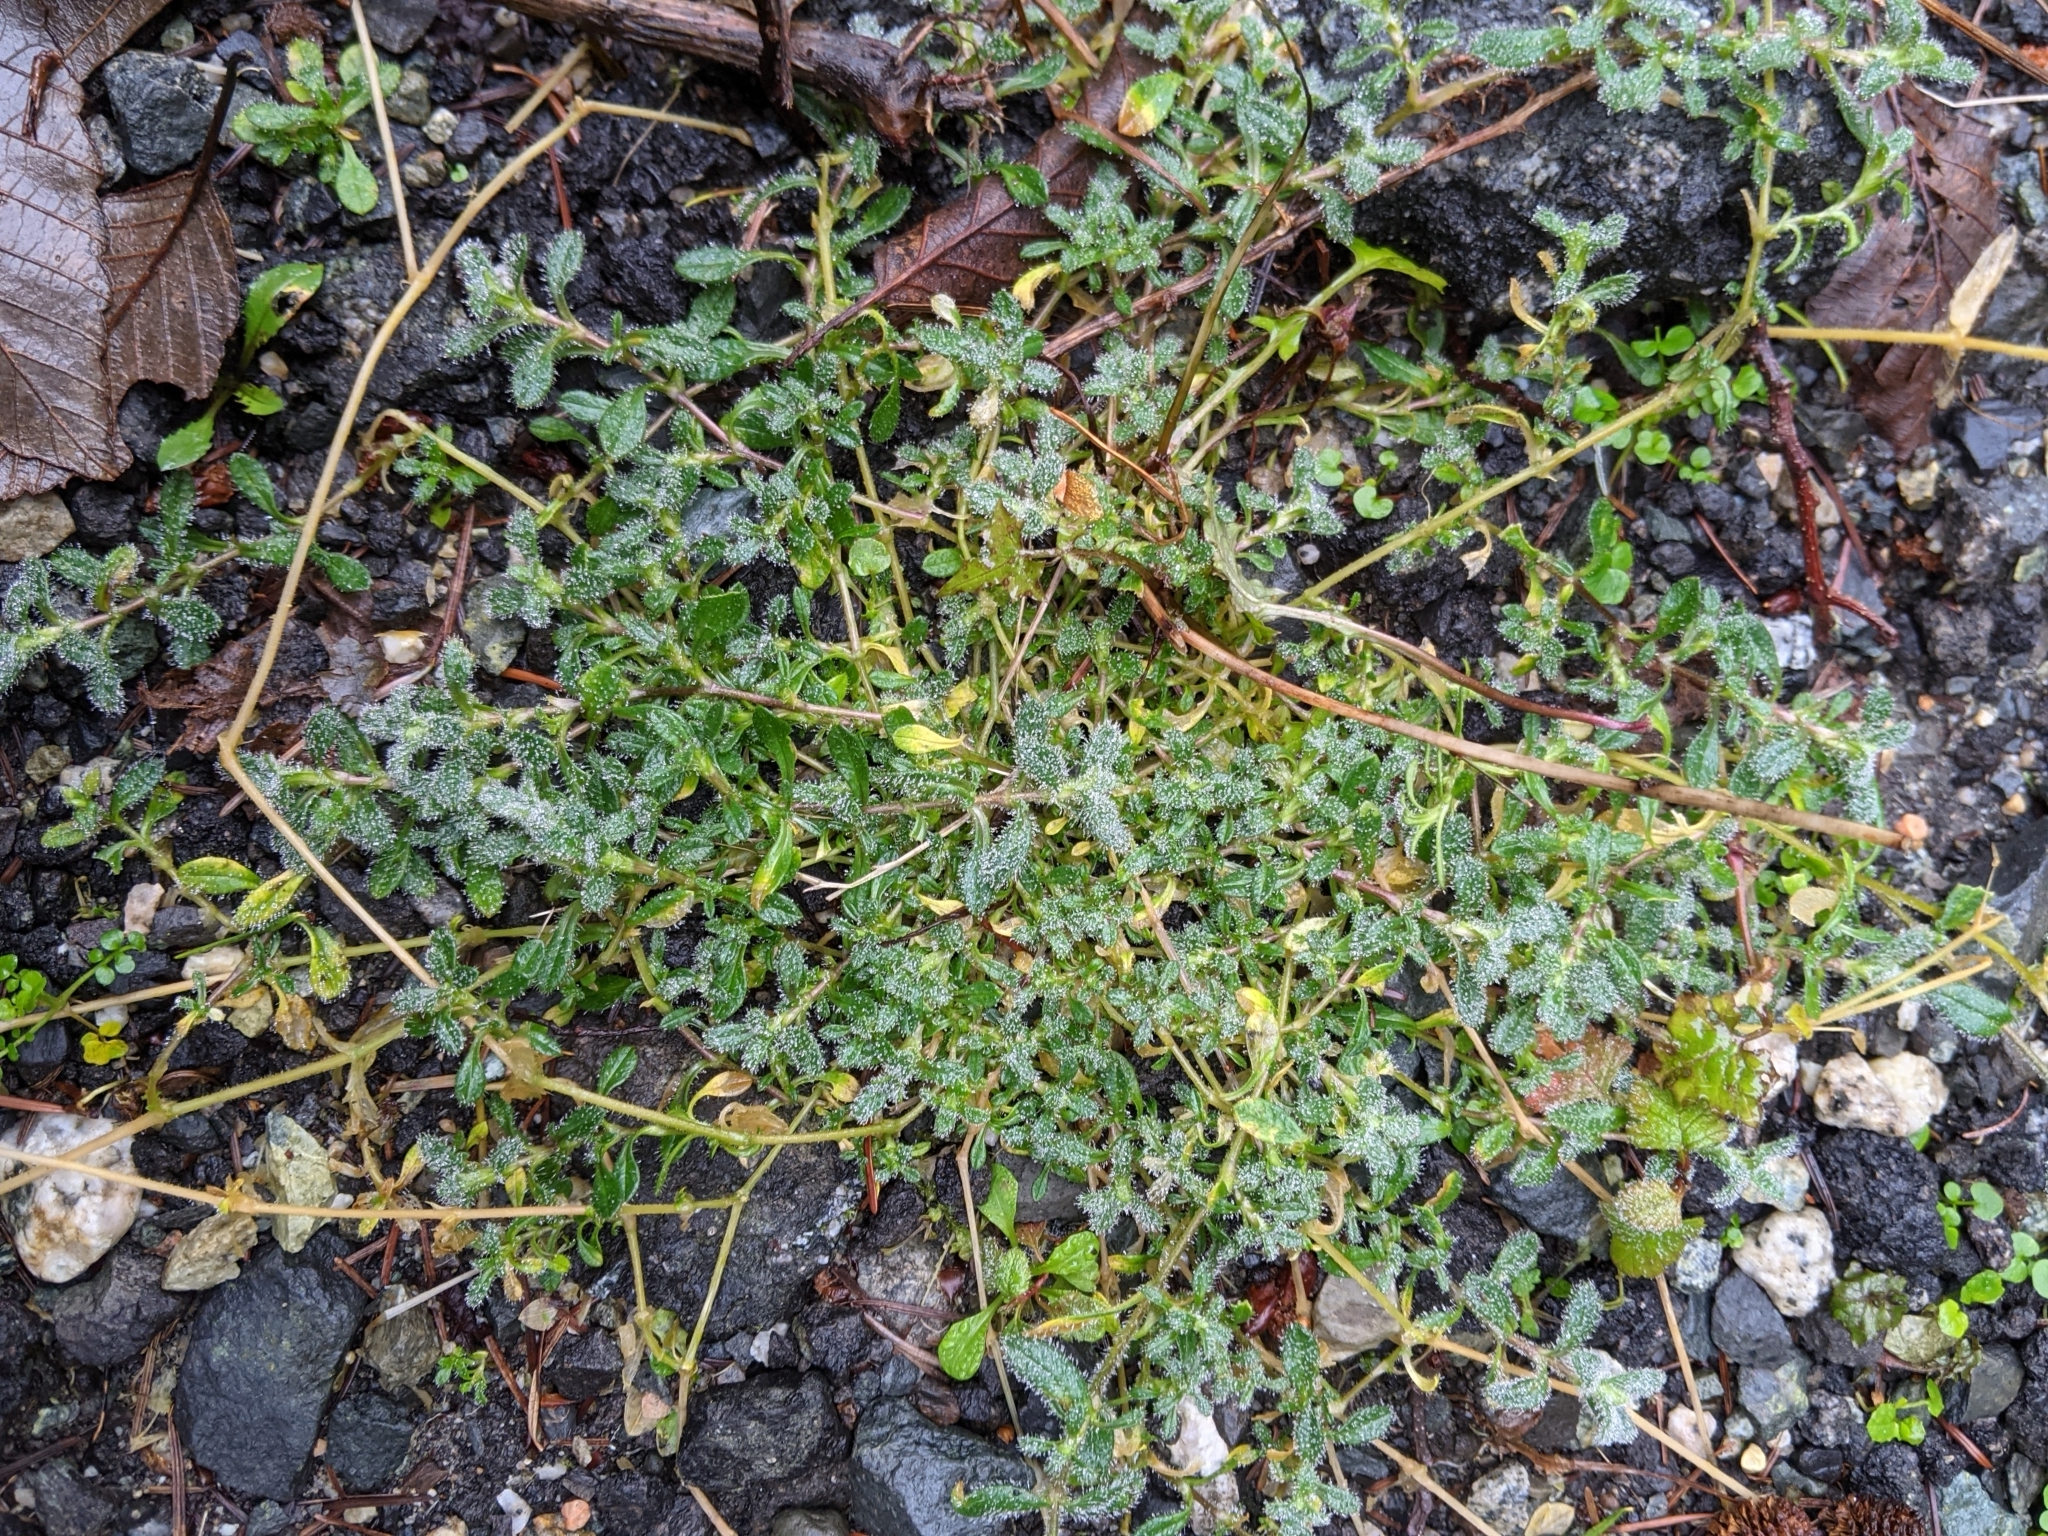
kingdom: Plantae
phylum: Tracheophyta
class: Magnoliopsida
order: Caryophyllales
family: Caryophyllaceae
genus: Cerastium
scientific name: Cerastium fontanum
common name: Common mouse-ear
